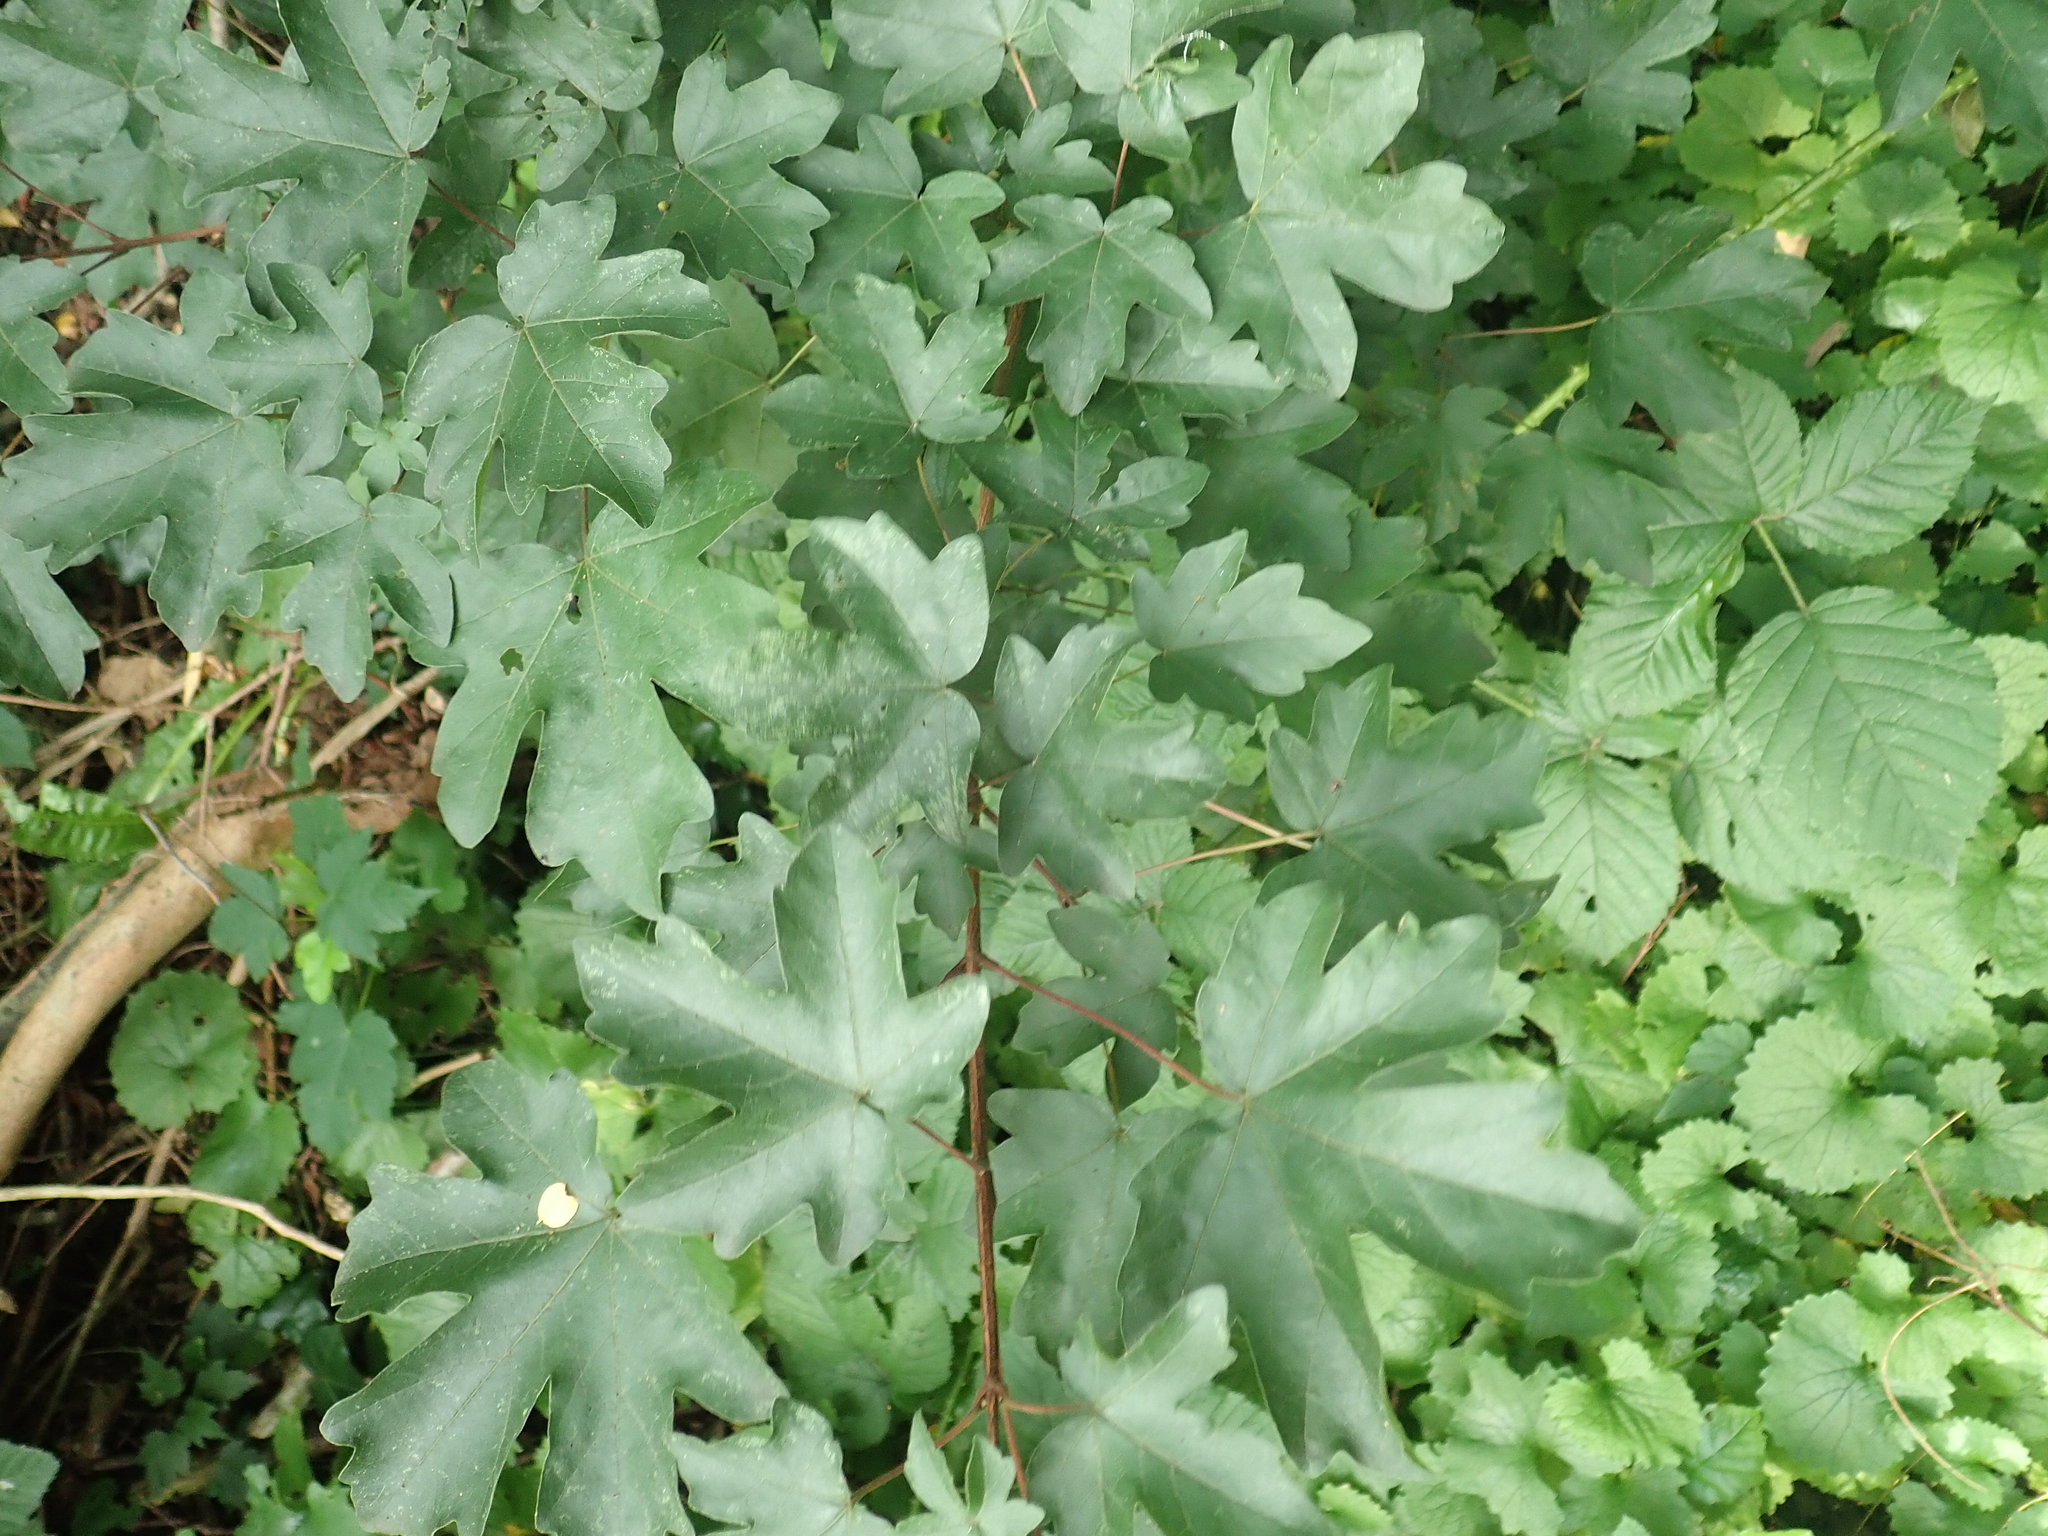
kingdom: Plantae
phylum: Tracheophyta
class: Magnoliopsida
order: Sapindales
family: Sapindaceae
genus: Acer
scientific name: Acer campestre
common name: Field maple
